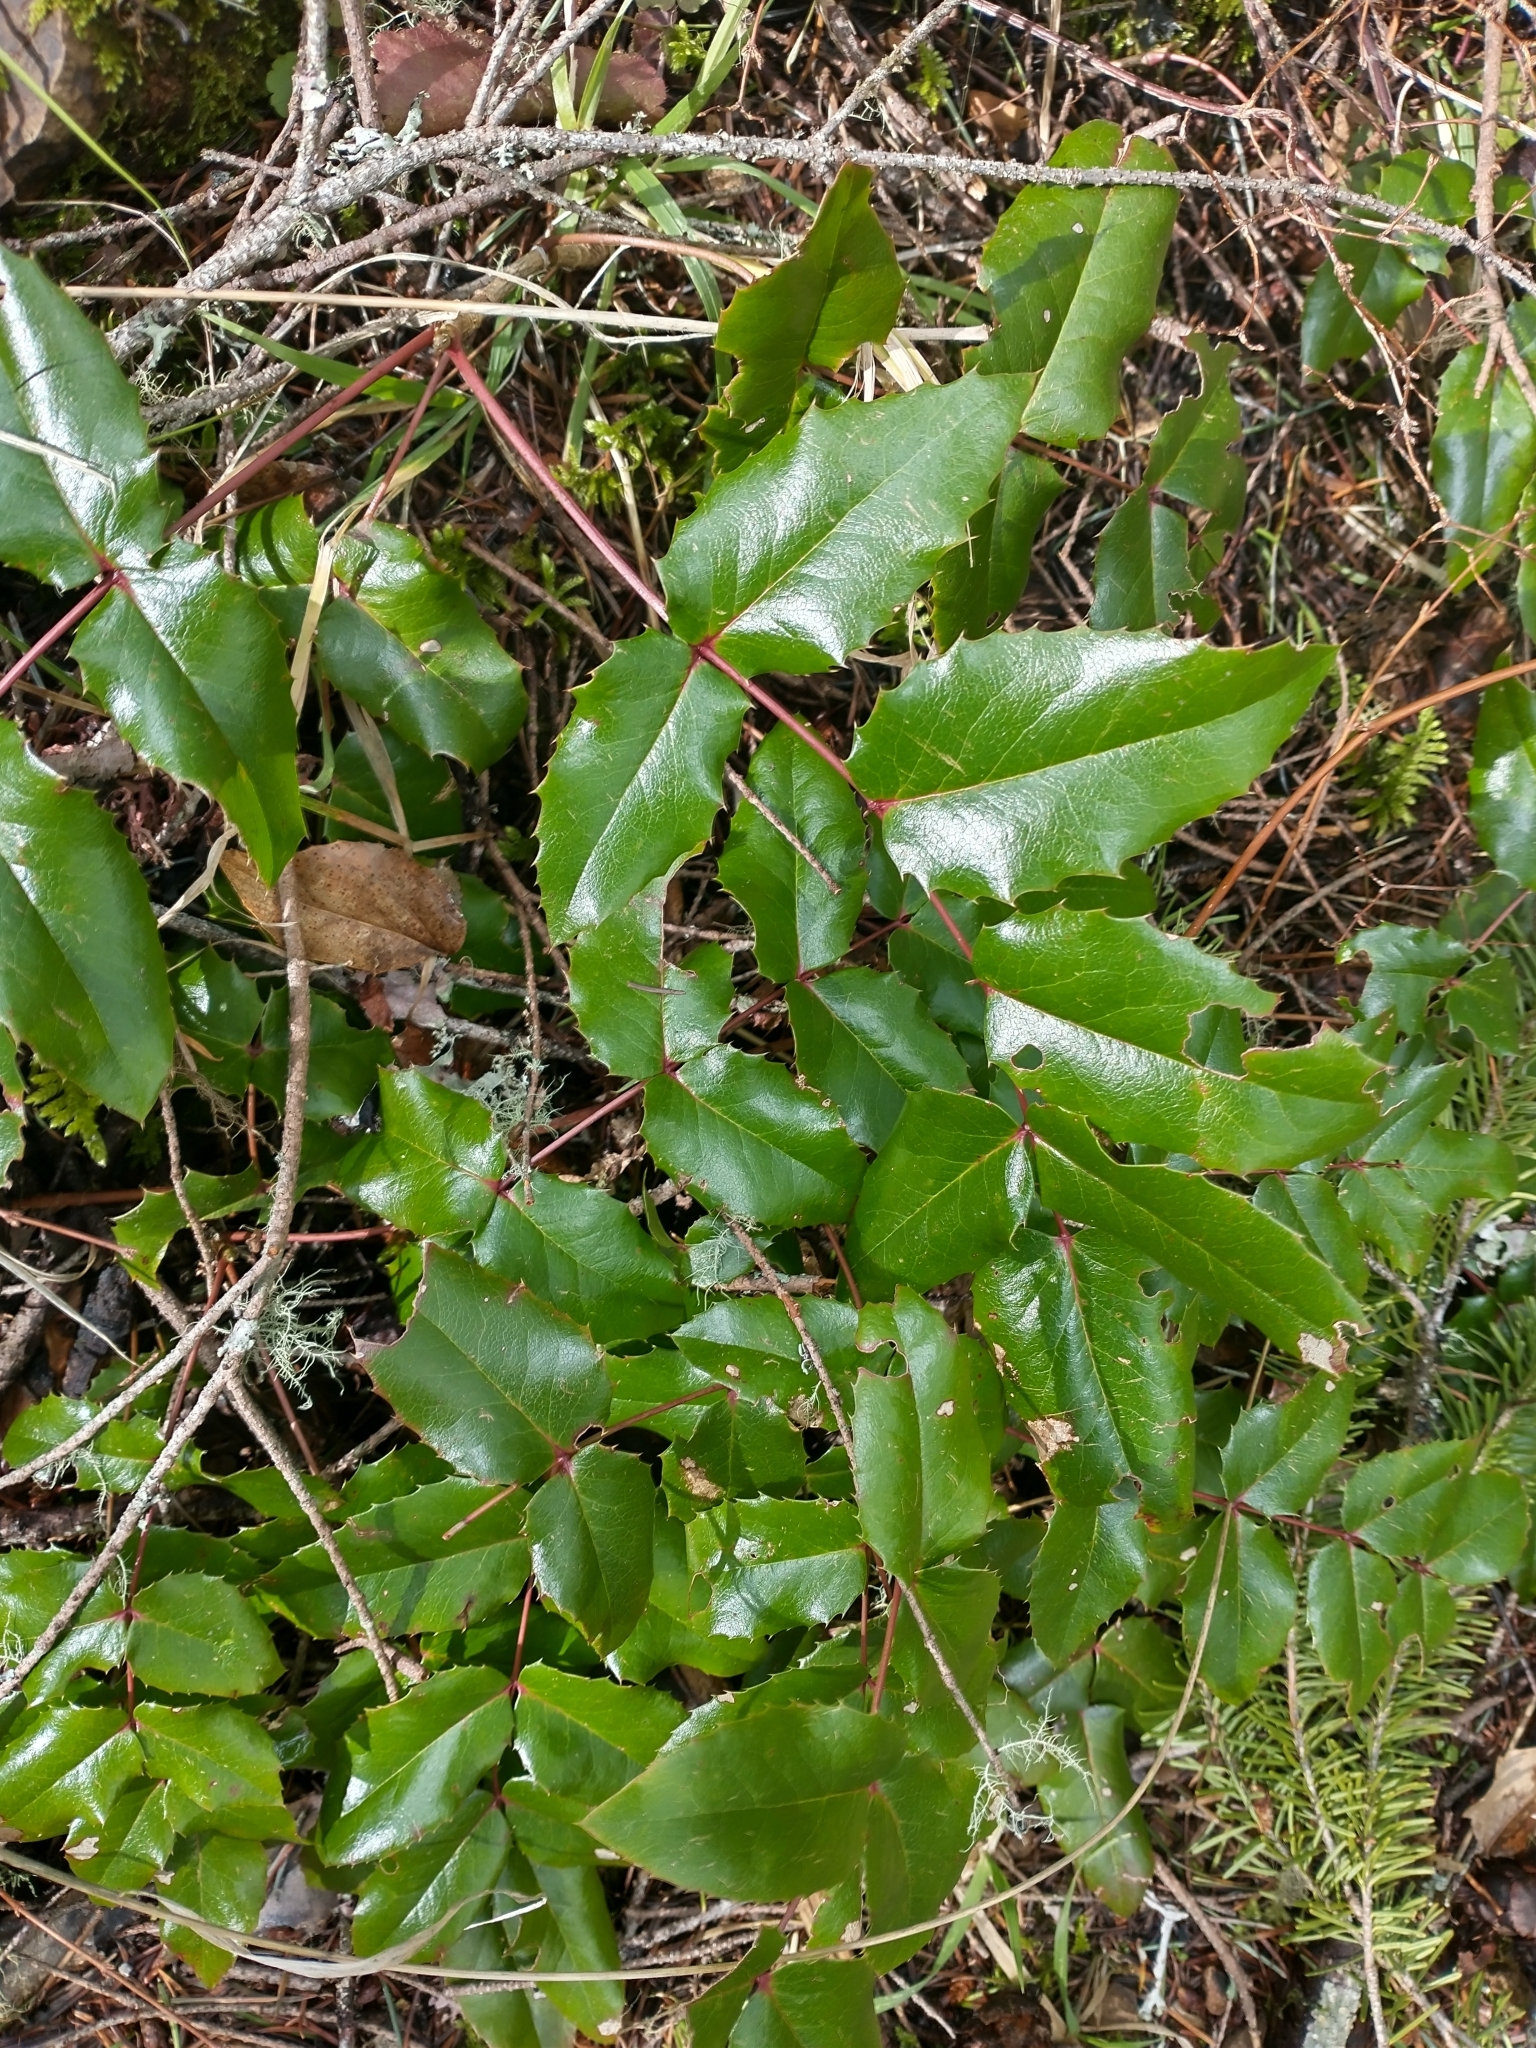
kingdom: Plantae
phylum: Tracheophyta
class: Magnoliopsida
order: Ranunculales
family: Berberidaceae
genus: Mahonia
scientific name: Mahonia aquifolium
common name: Oregon-grape
